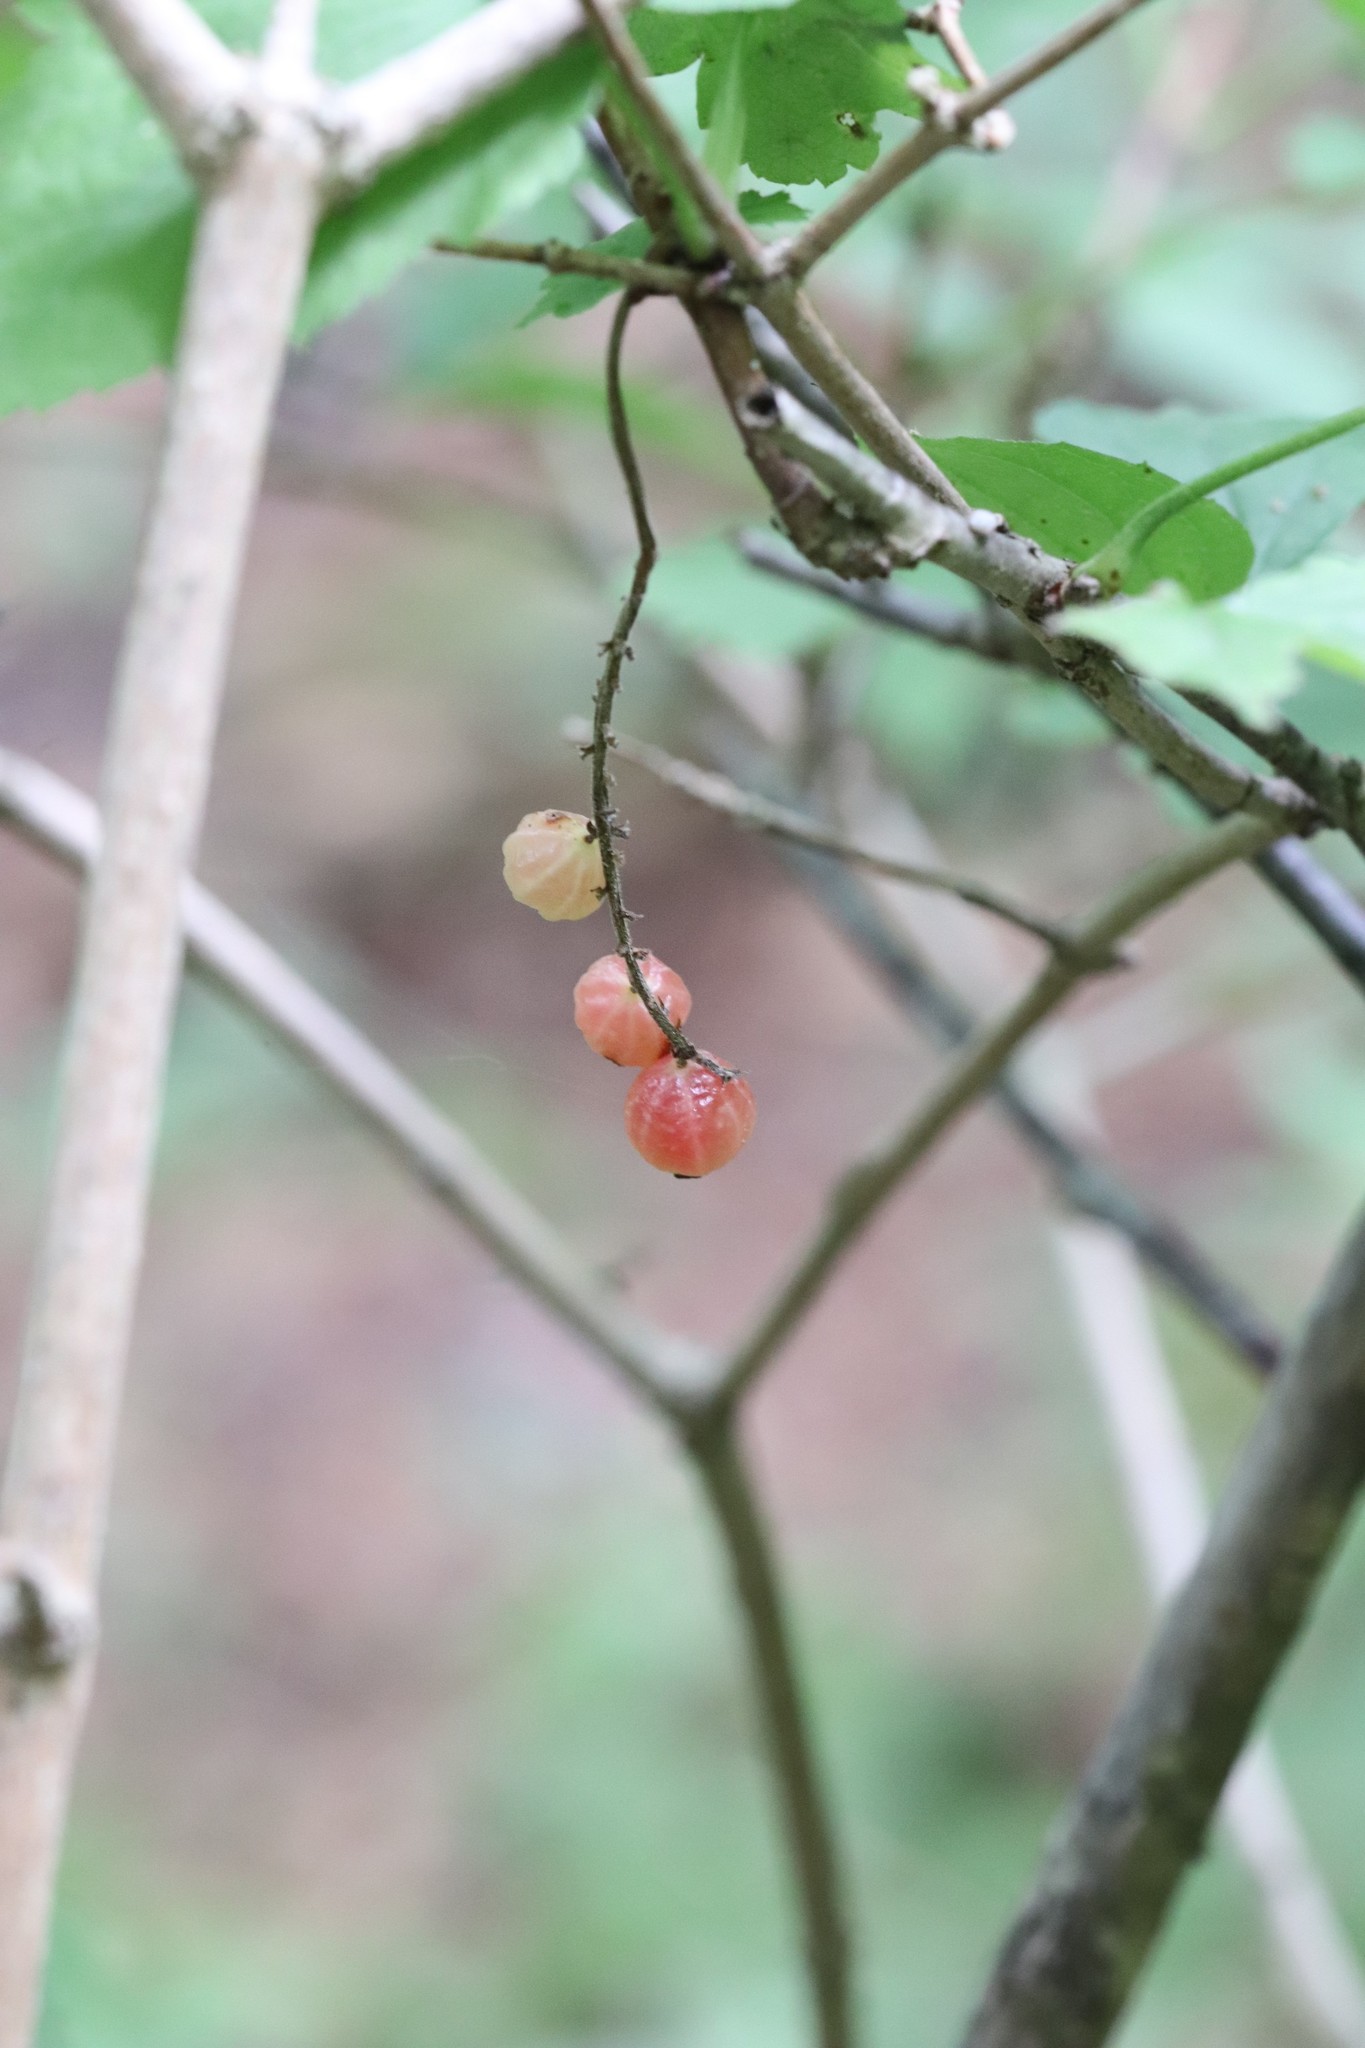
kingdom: Plantae
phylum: Tracheophyta
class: Magnoliopsida
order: Saxifragales
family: Grossulariaceae
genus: Ribes
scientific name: Ribes mandshuricum
